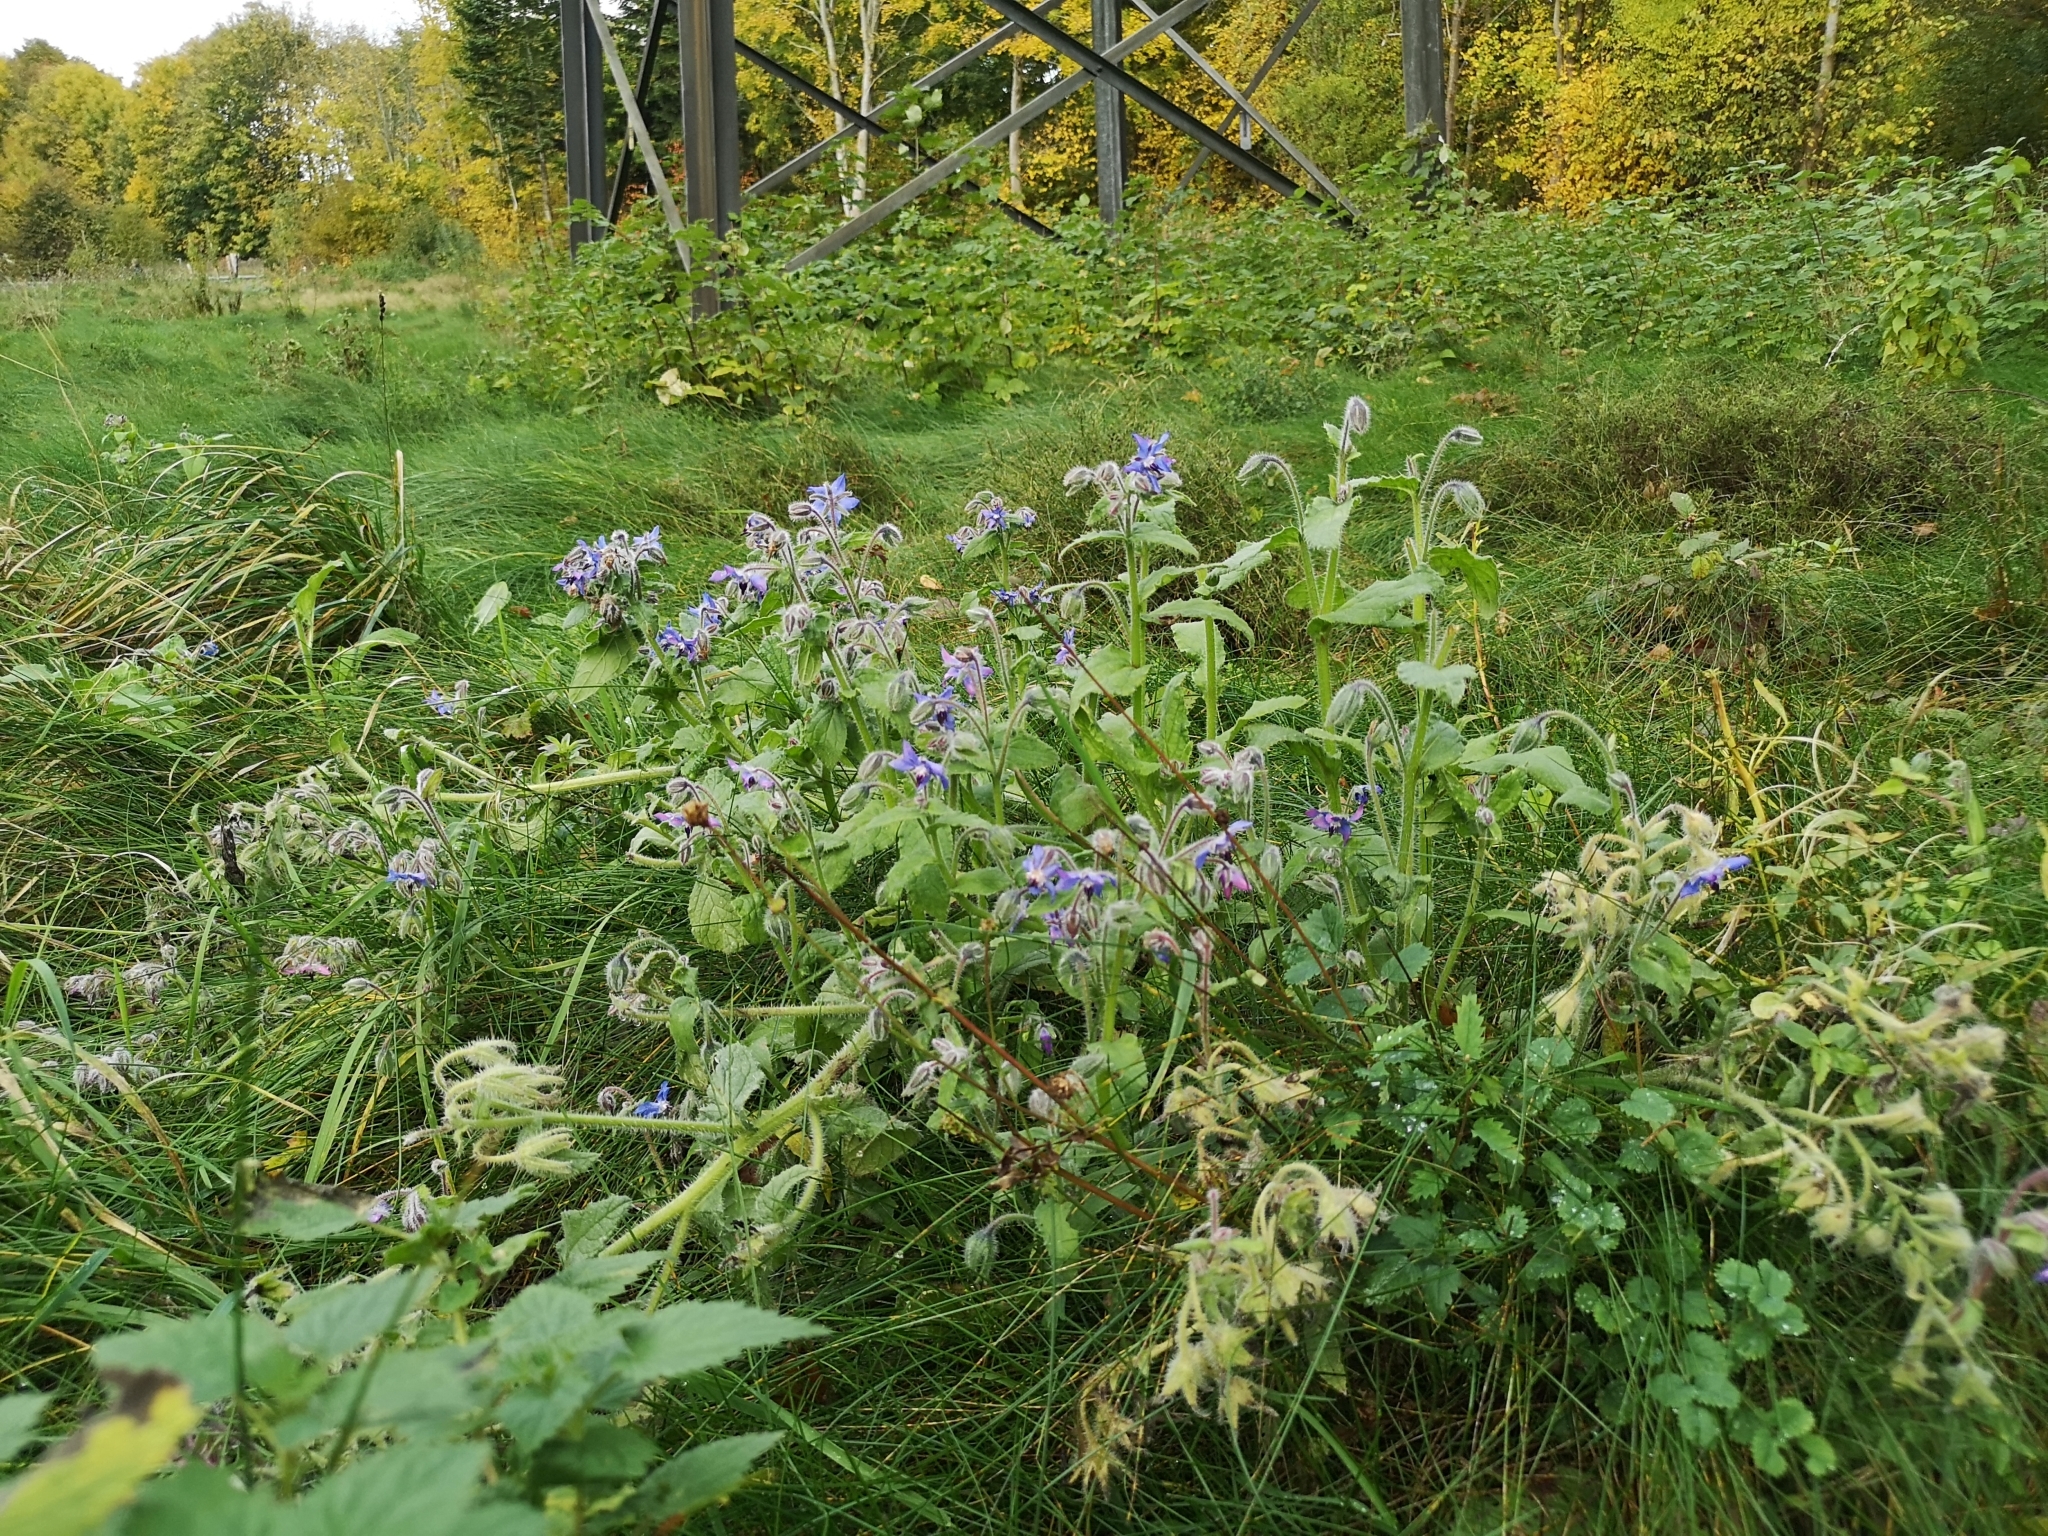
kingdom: Plantae
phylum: Tracheophyta
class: Magnoliopsida
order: Boraginales
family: Boraginaceae
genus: Borago
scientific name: Borago officinalis
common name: Borage
